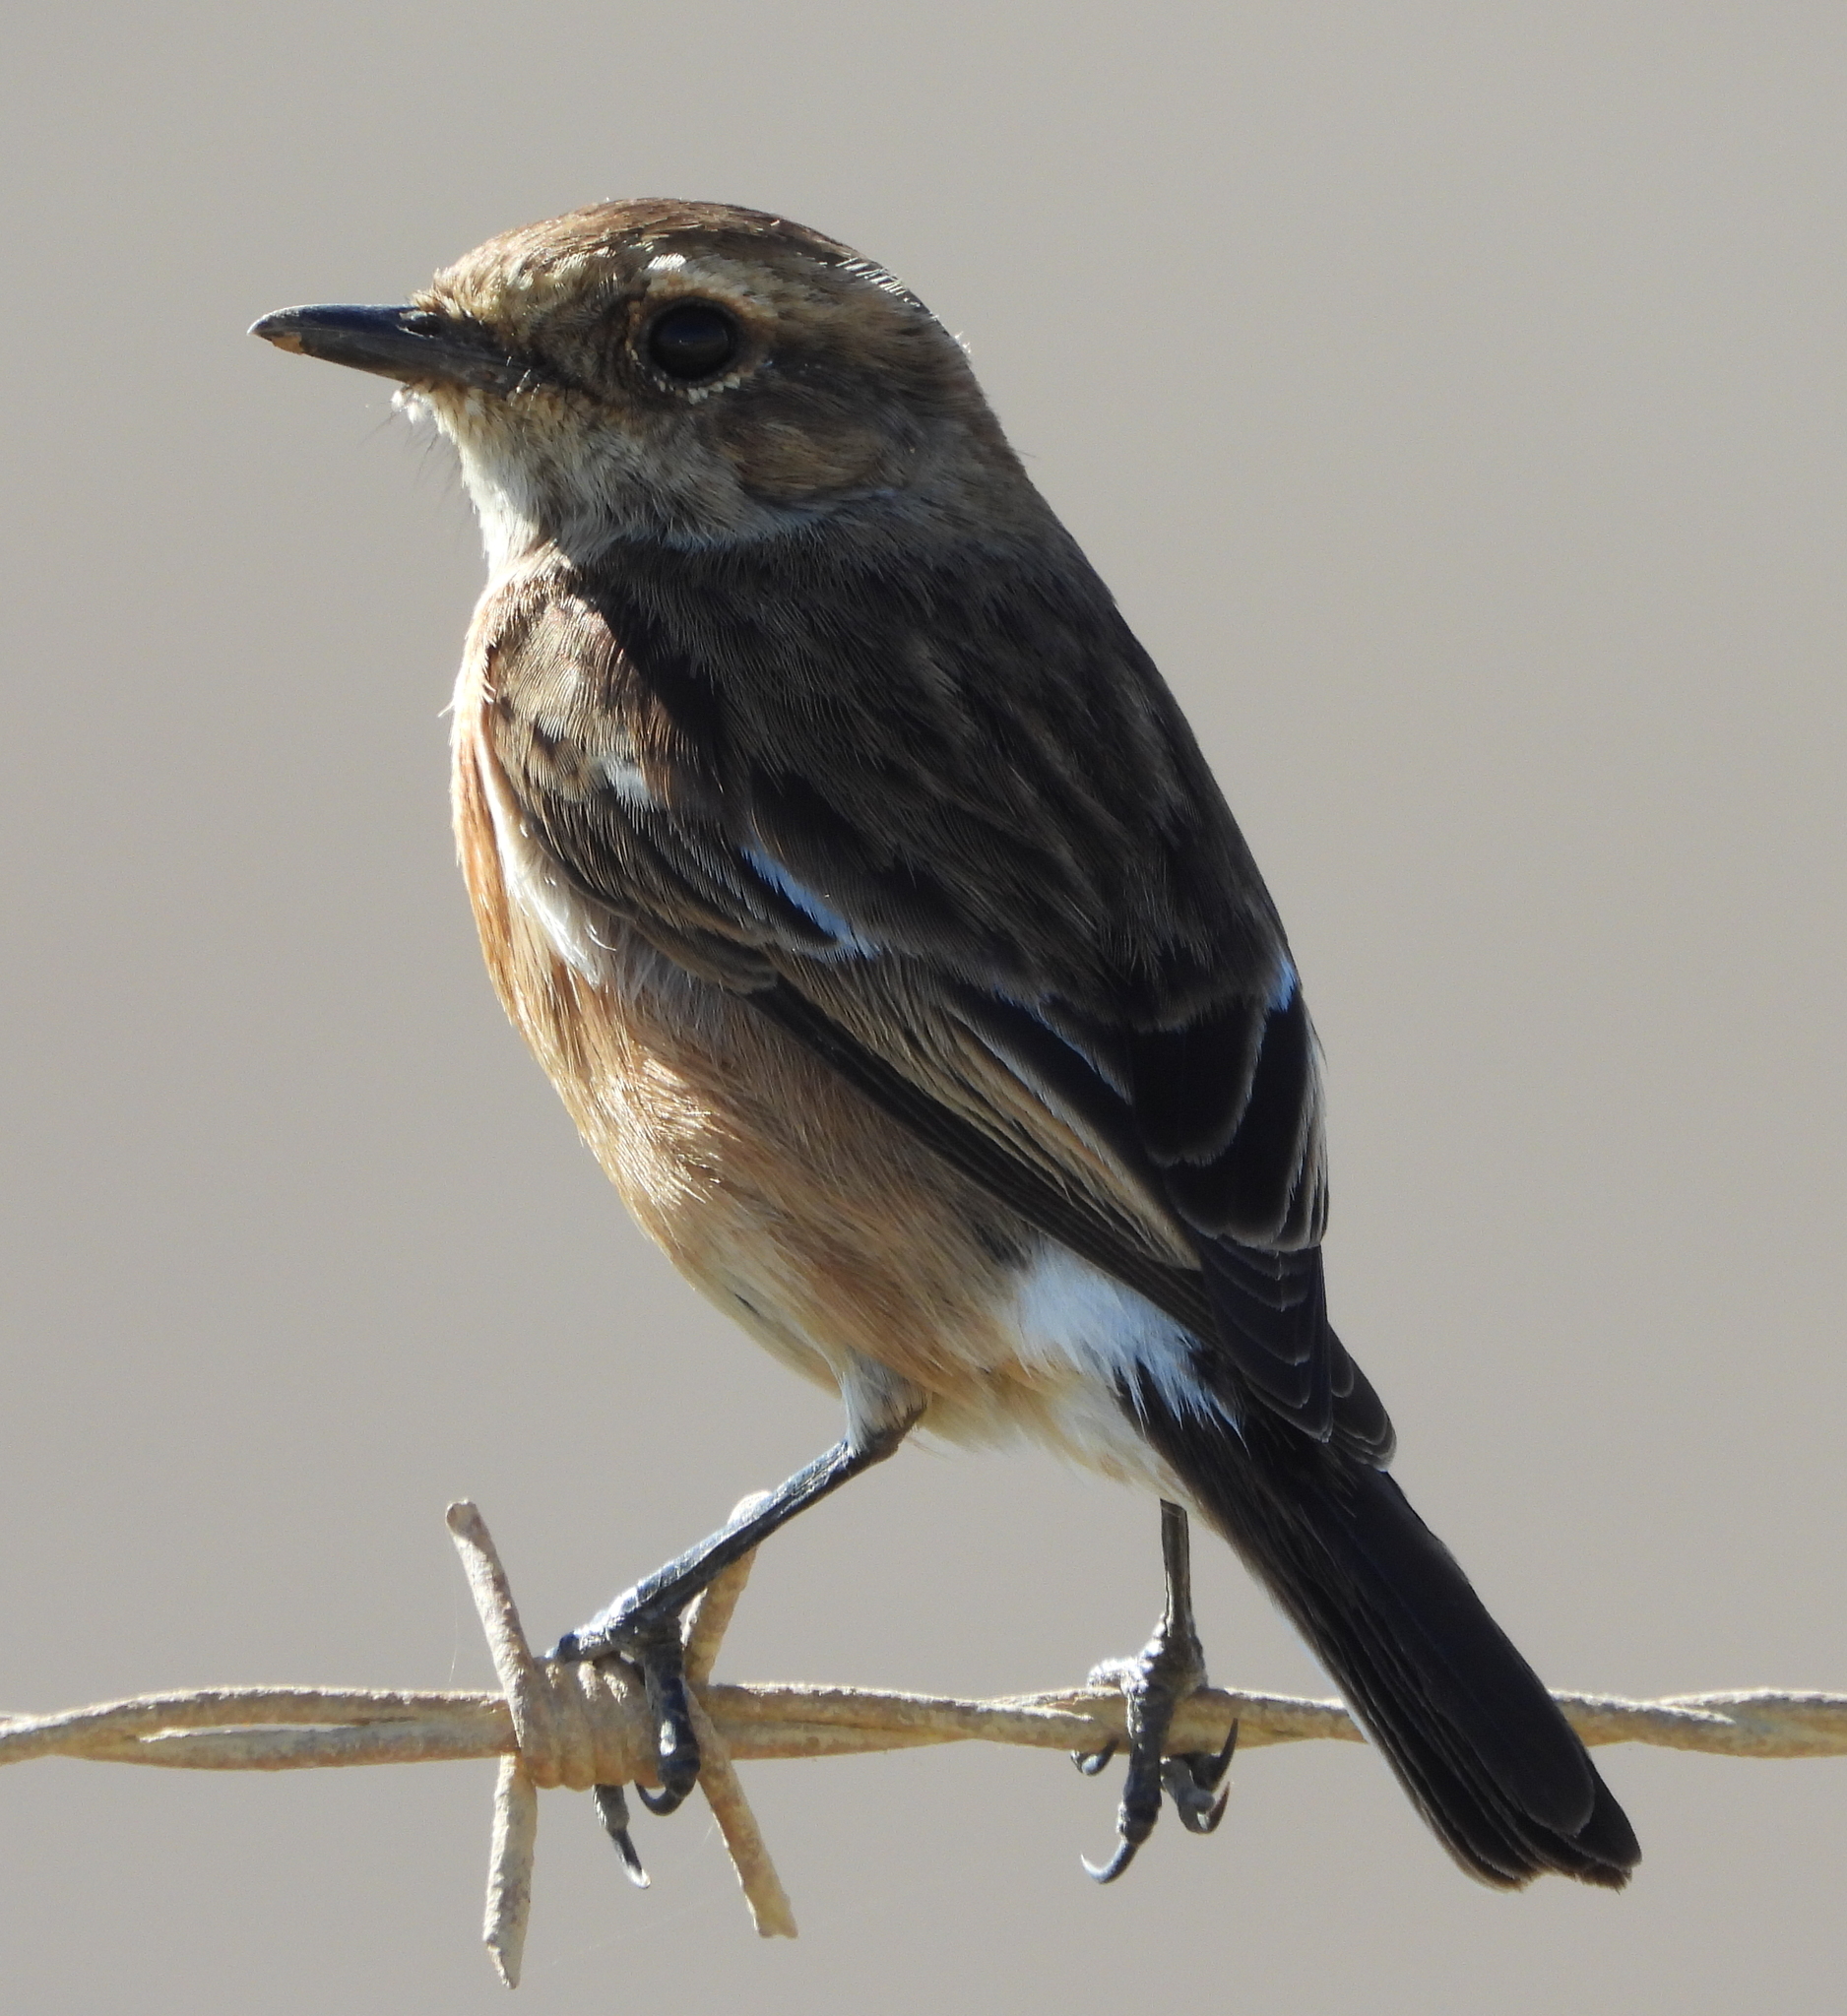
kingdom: Animalia
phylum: Chordata
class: Aves
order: Passeriformes
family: Muscicapidae
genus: Saxicola
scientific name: Saxicola torquatus
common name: African stonechat
